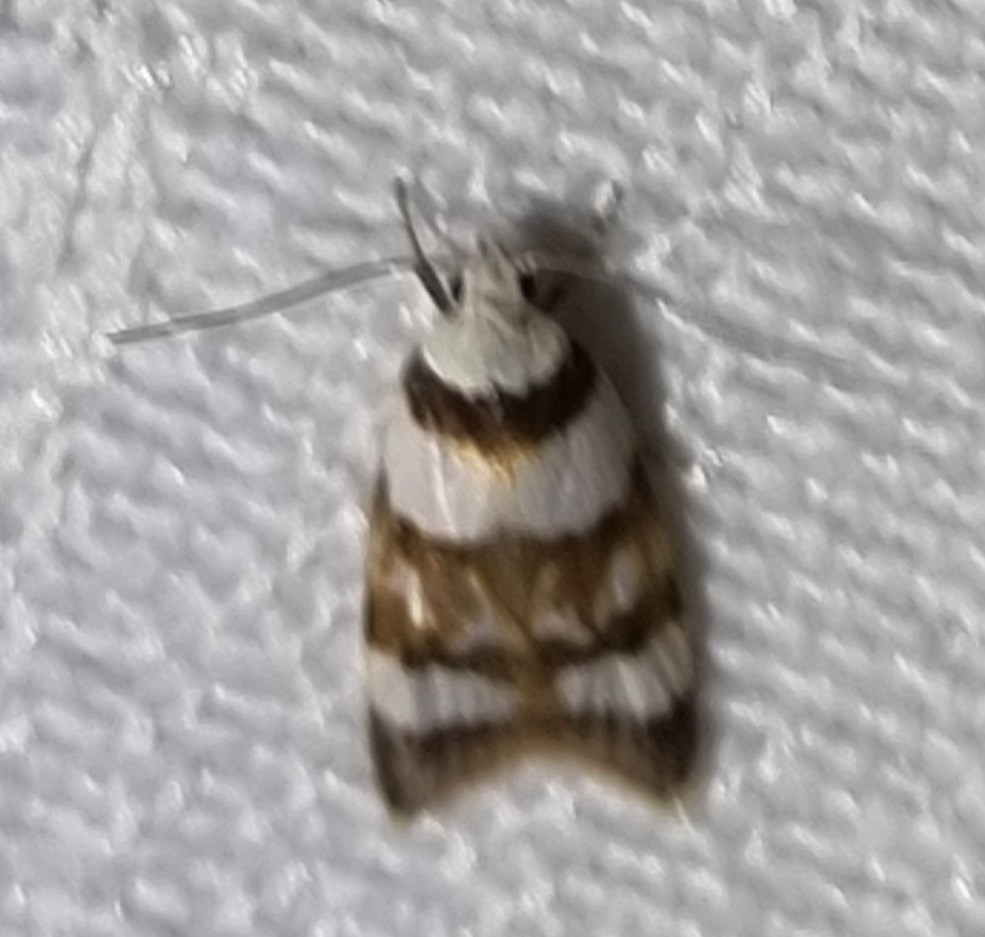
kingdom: Animalia
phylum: Arthropoda
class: Insecta
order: Lepidoptera
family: Oecophoridae
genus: Catacometes
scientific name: Catacometes phanozona
